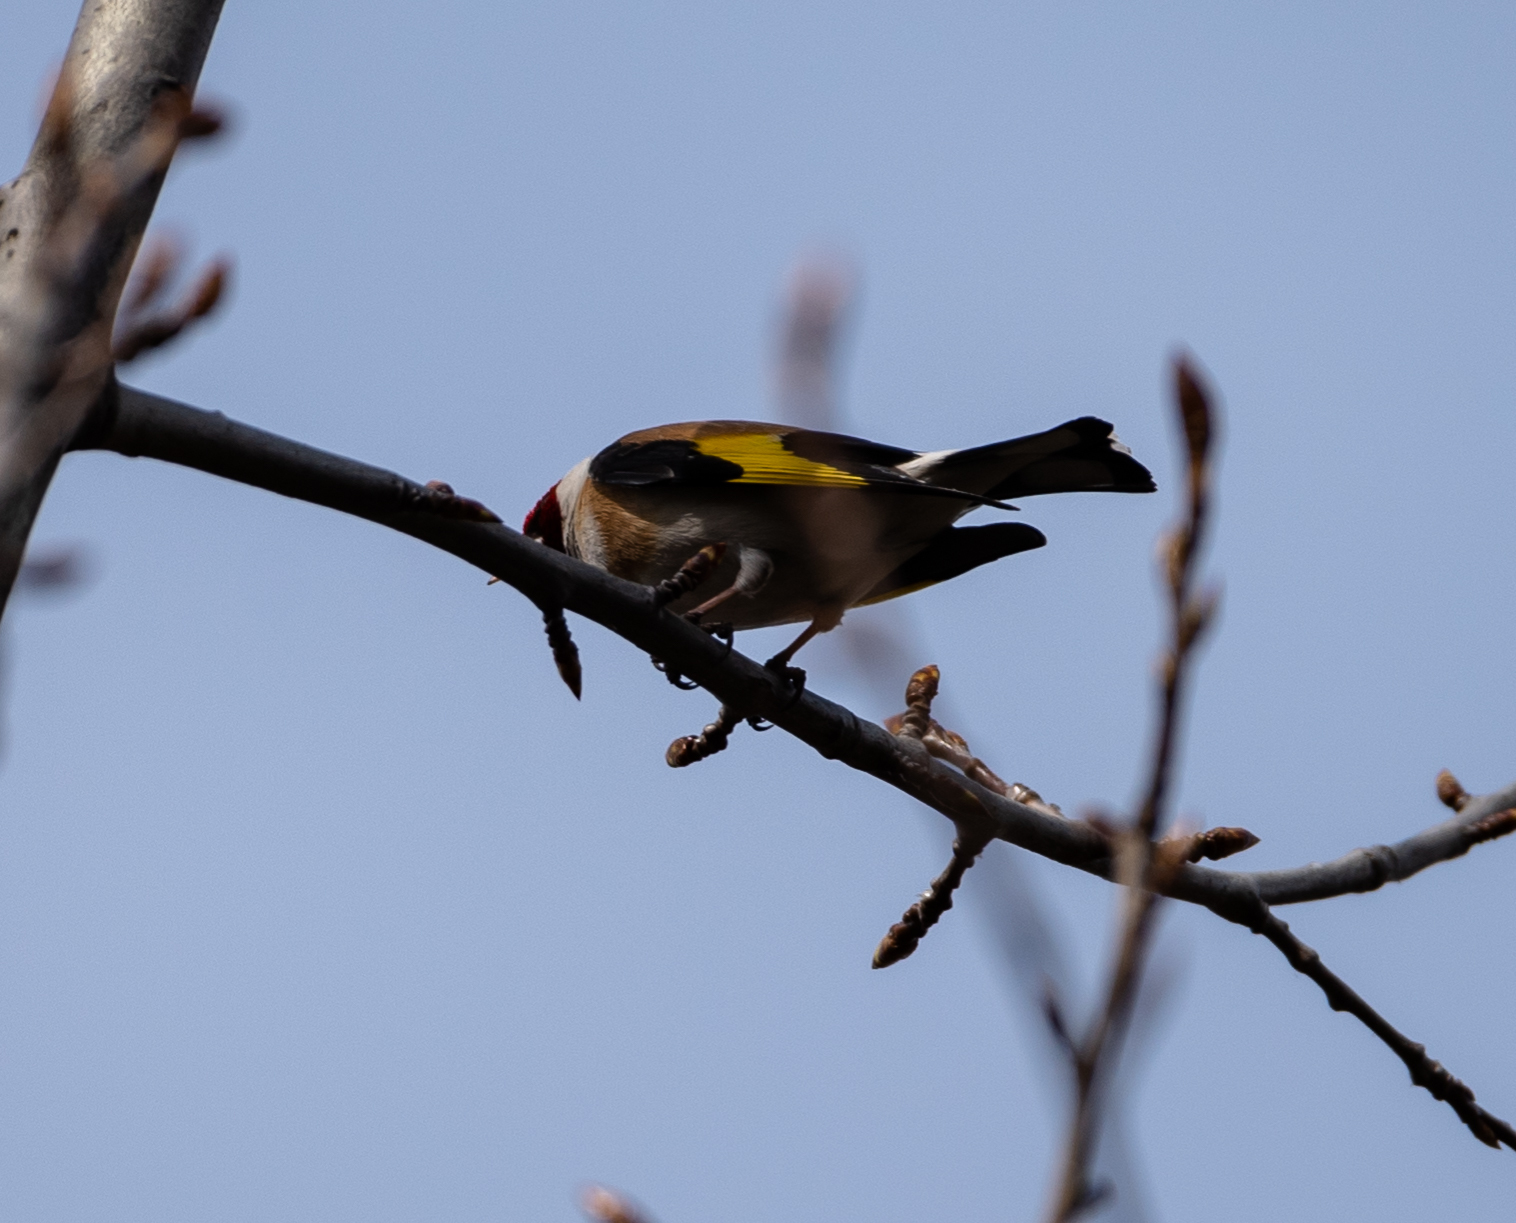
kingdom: Animalia
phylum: Chordata
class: Aves
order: Passeriformes
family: Fringillidae
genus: Carduelis
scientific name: Carduelis carduelis
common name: European goldfinch
